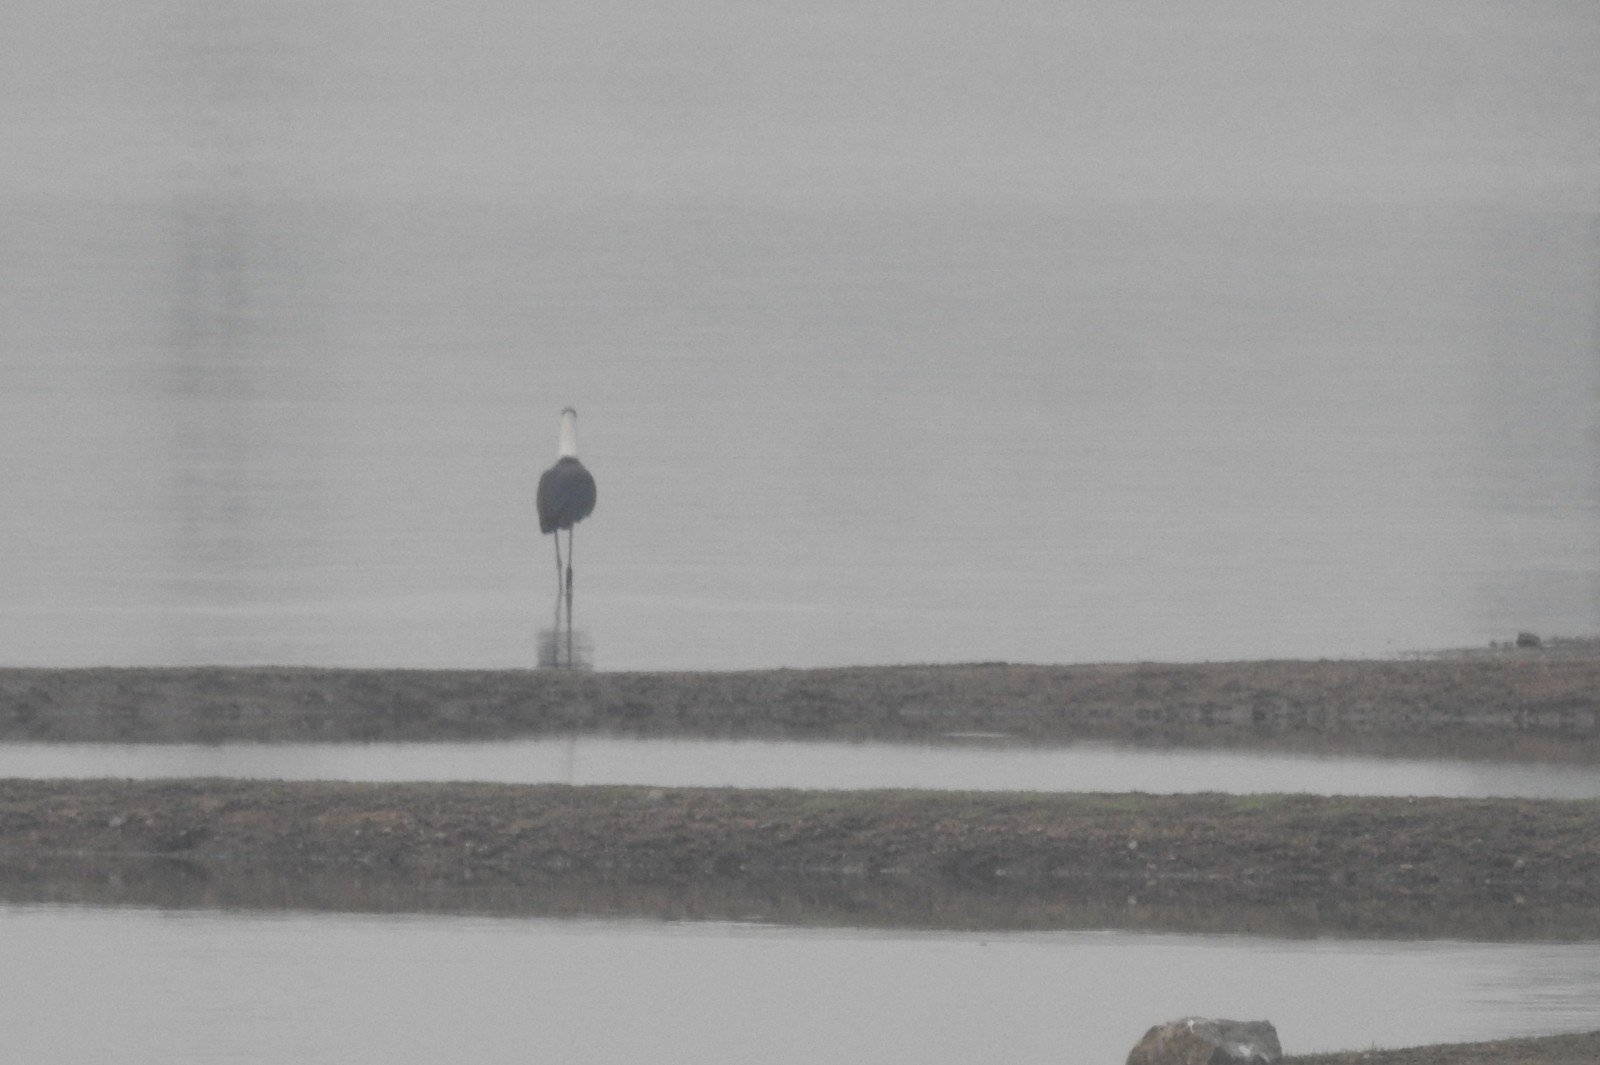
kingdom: Animalia
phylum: Chordata
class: Aves
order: Ciconiiformes
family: Ciconiidae
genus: Ciconia
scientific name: Ciconia episcopus
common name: Woolly-necked stork
